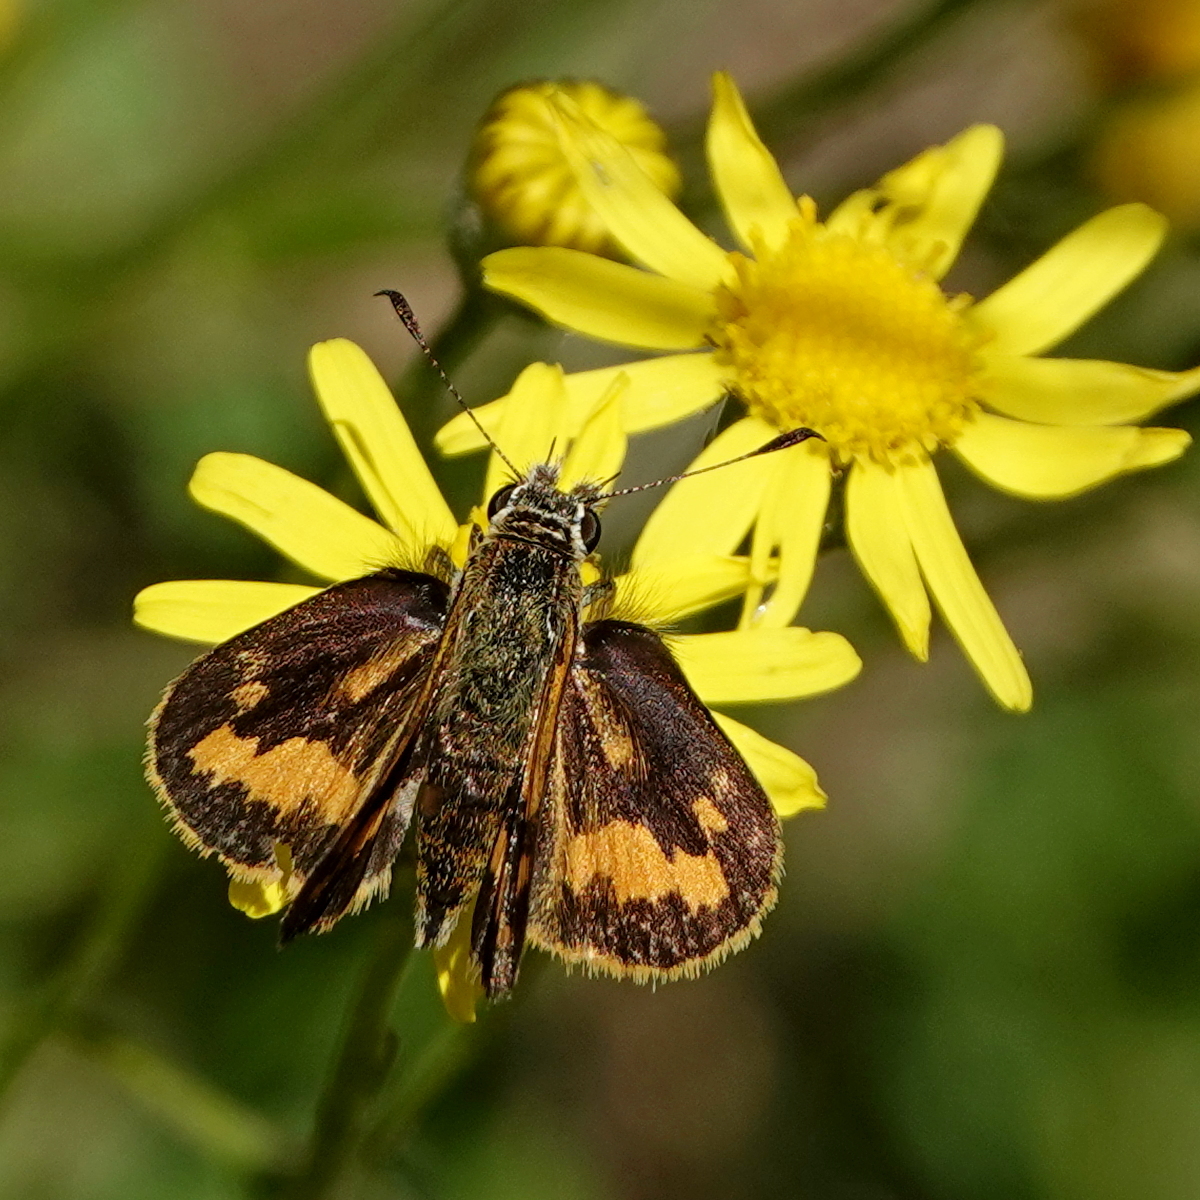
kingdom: Animalia
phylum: Arthropoda
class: Insecta
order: Lepidoptera
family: Hesperiidae
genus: Ocybadistes
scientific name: Ocybadistes walkeri
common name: Yellow-banded dart
